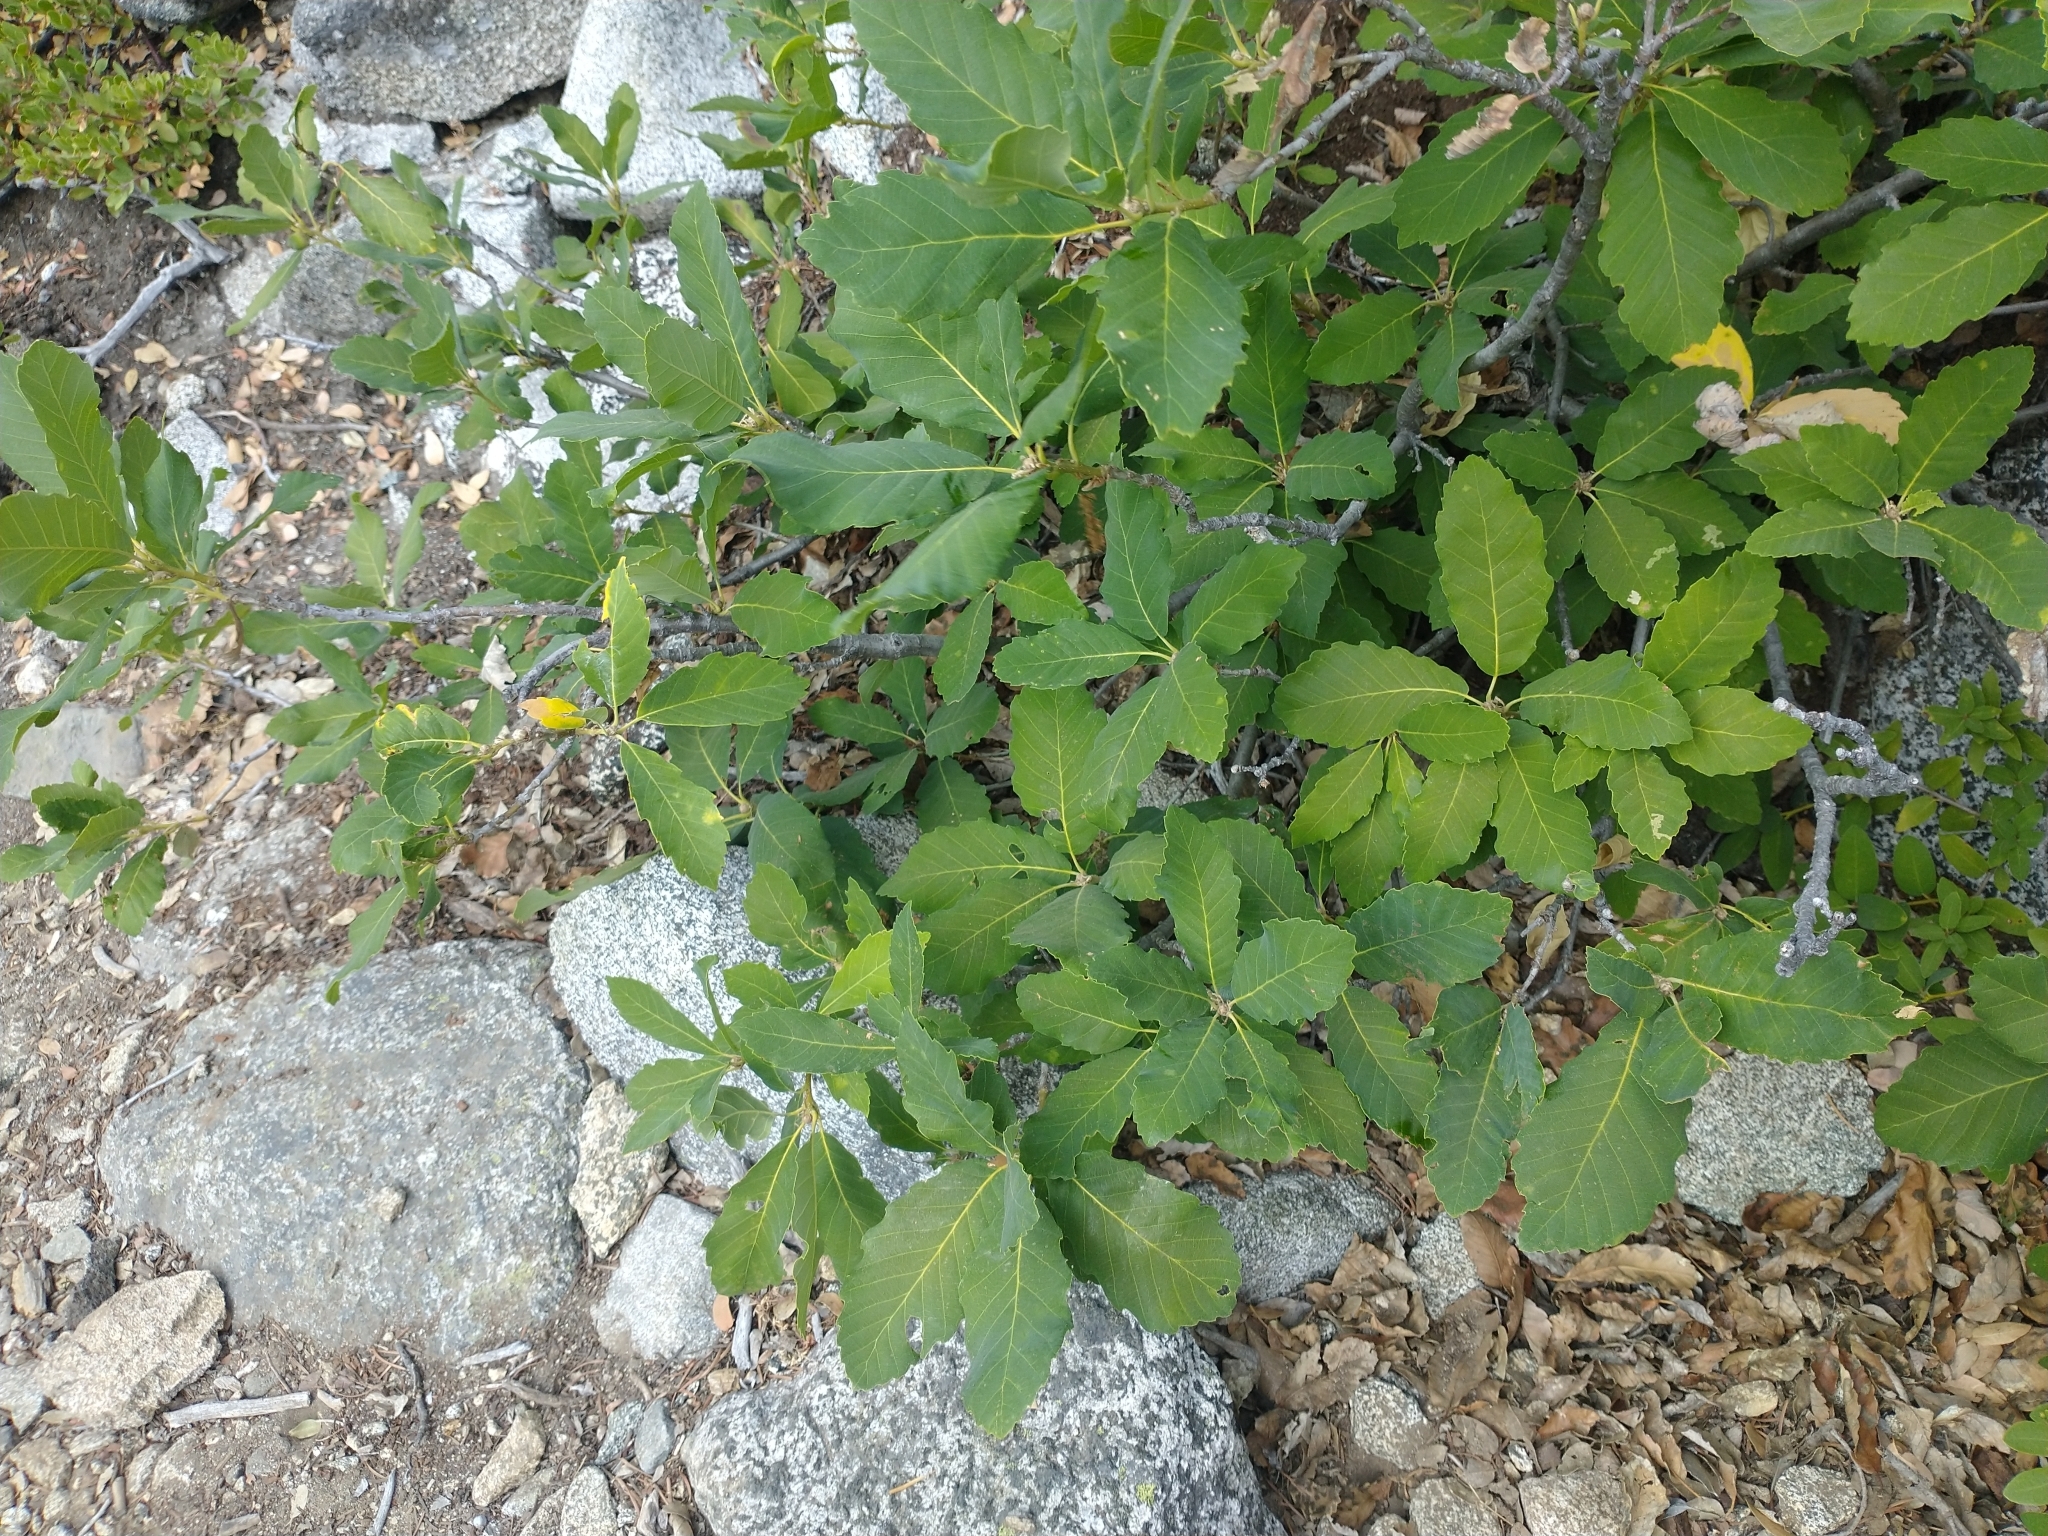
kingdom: Plantae
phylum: Tracheophyta
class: Magnoliopsida
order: Fagales
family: Fagaceae
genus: Quercus
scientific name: Quercus sadleriana
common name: Deer oak
